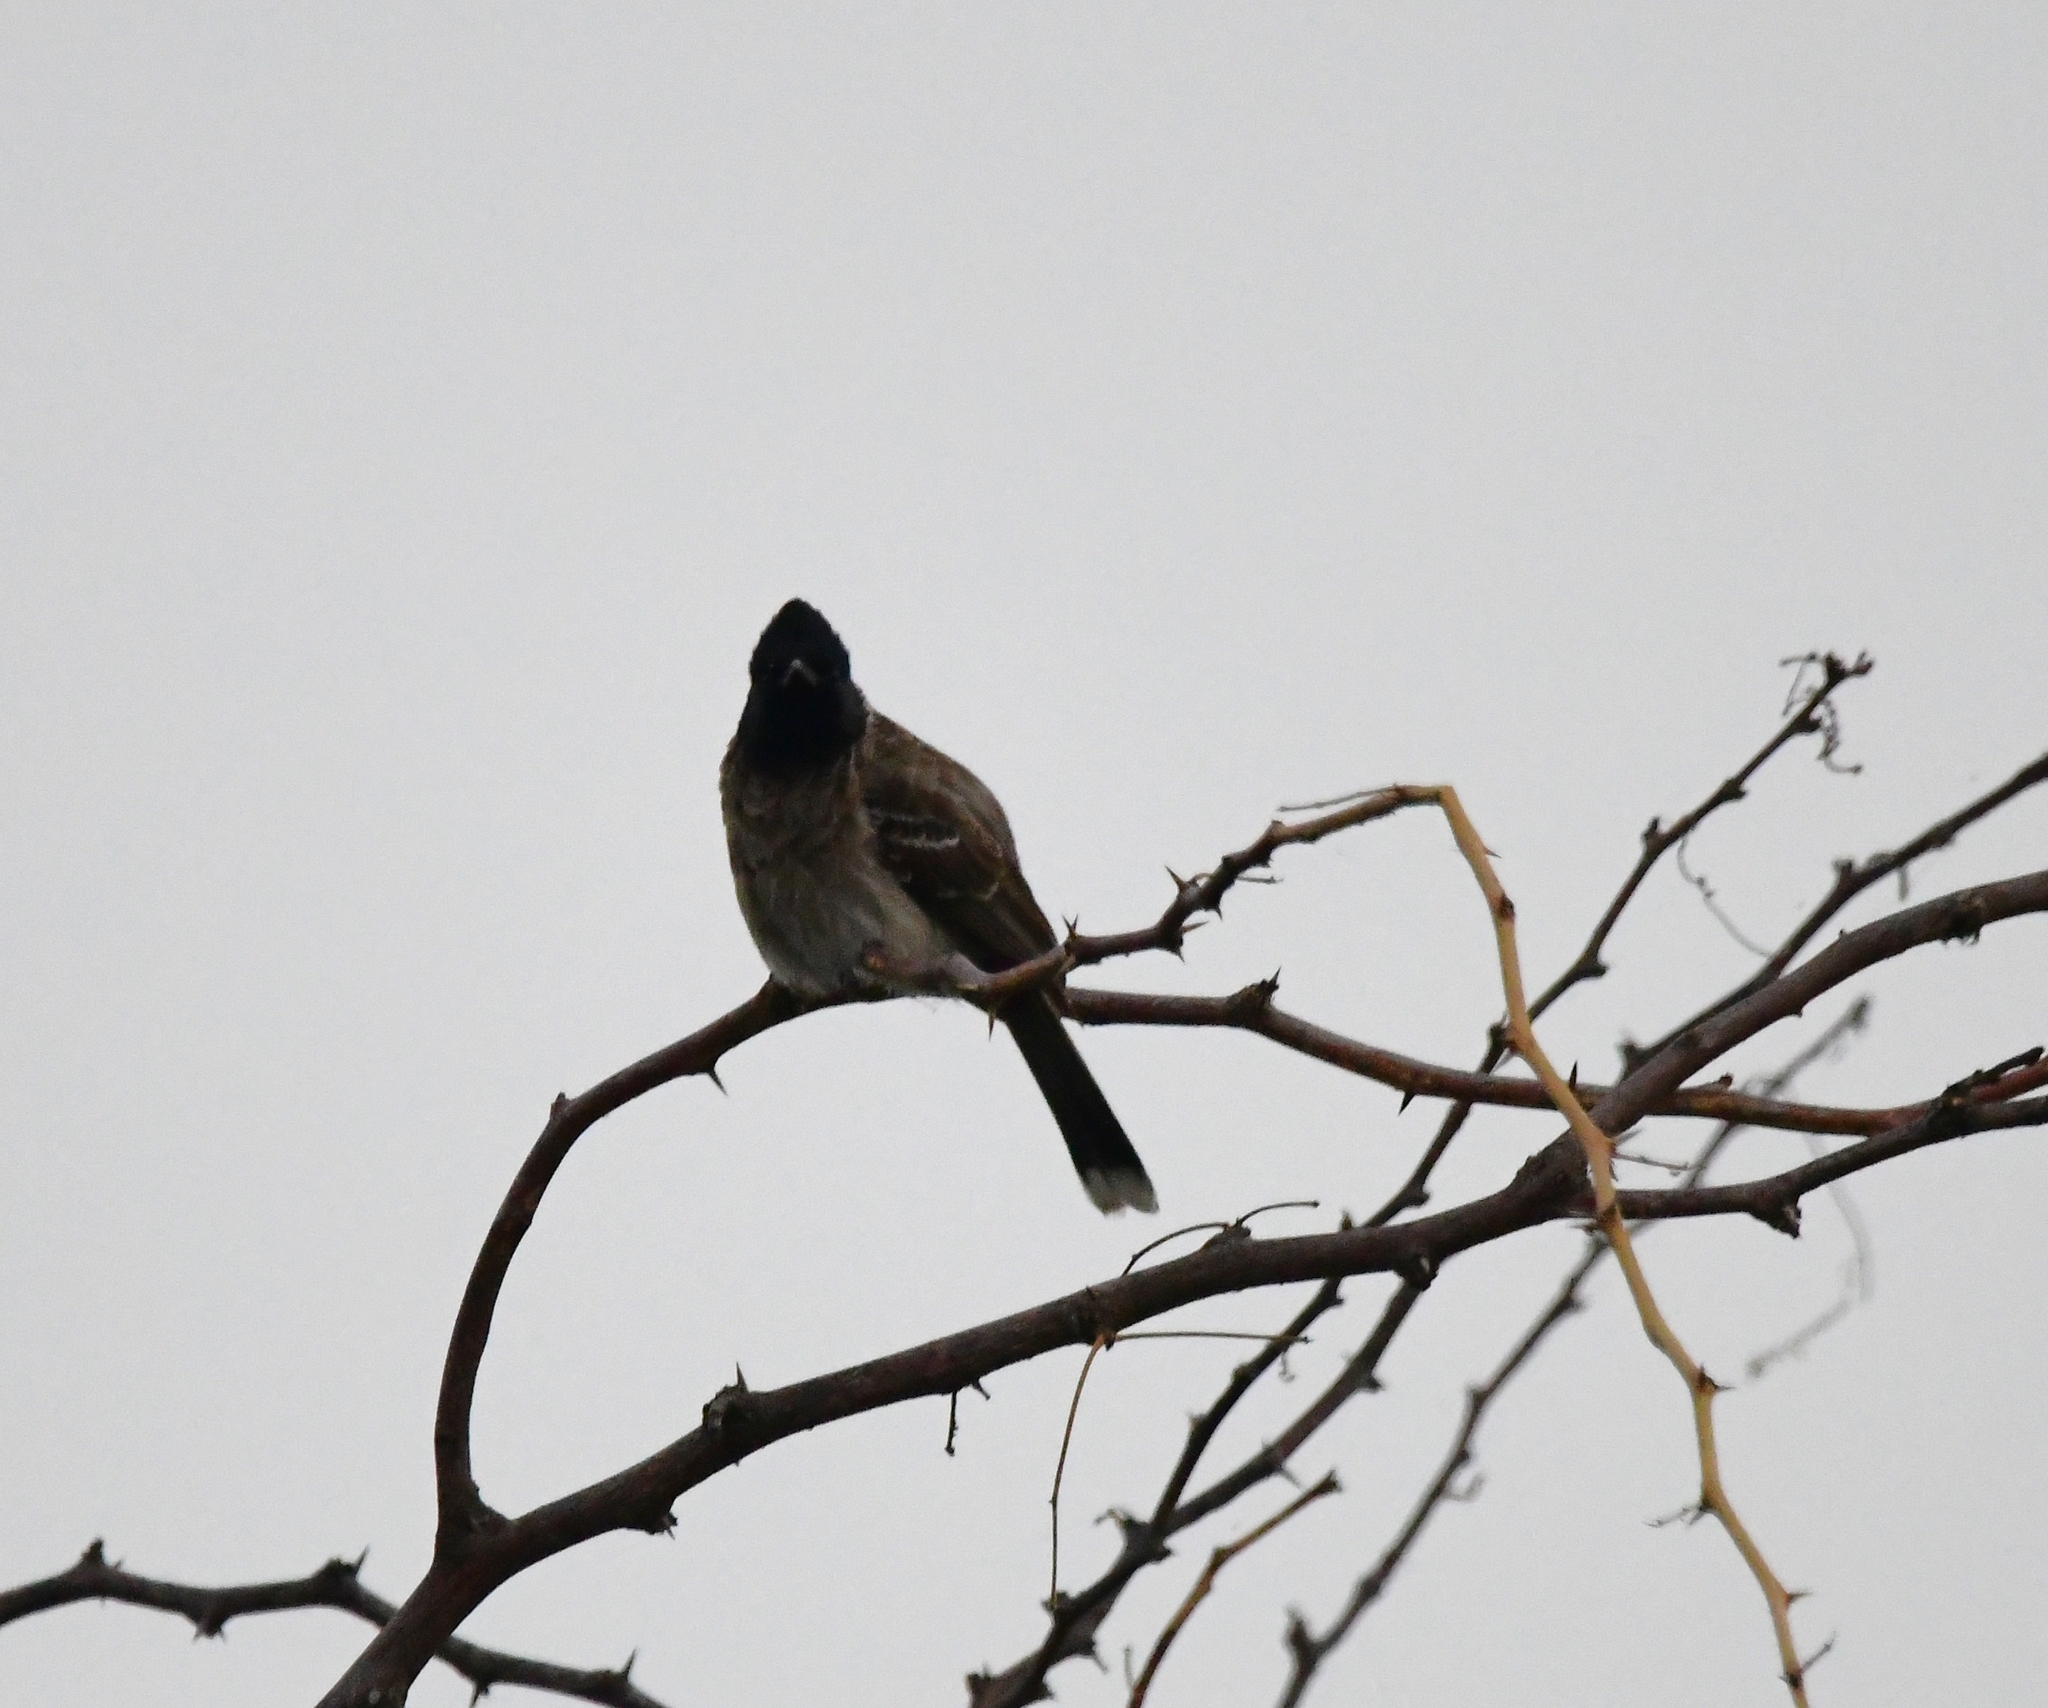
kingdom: Animalia
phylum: Chordata
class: Aves
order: Passeriformes
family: Pycnonotidae
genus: Pycnonotus
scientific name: Pycnonotus cafer
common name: Red-vented bulbul
